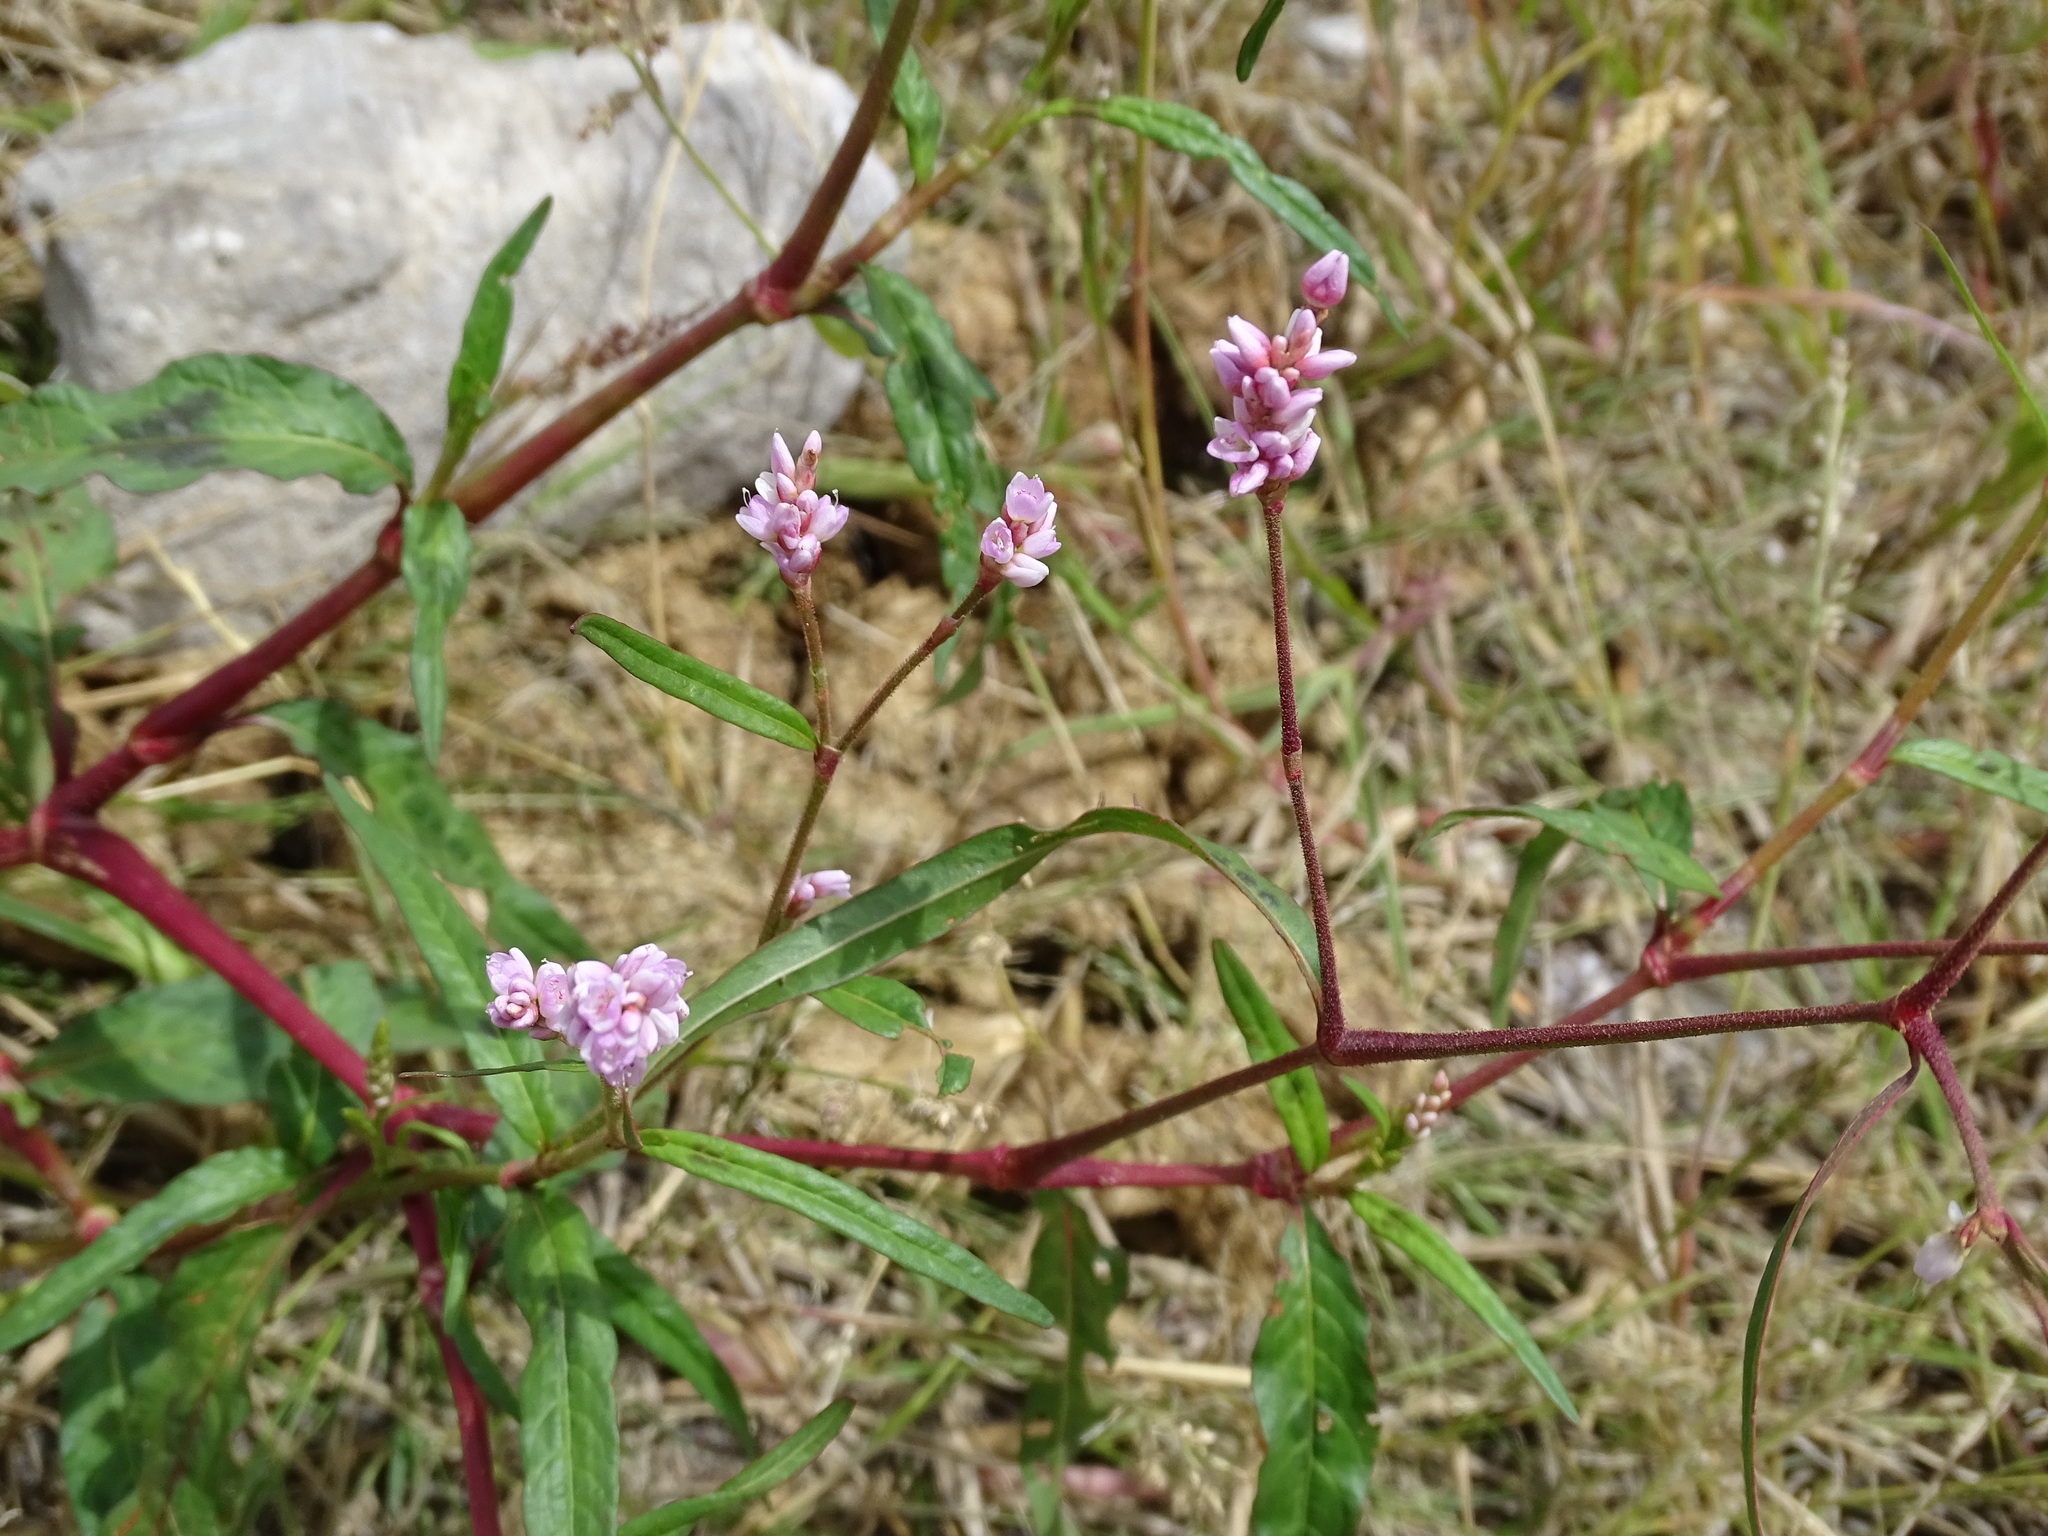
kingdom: Plantae
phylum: Tracheophyta
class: Magnoliopsida
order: Caryophyllales
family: Polygonaceae
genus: Persicaria
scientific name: Persicaria pensylvanica
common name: Pinkweed
